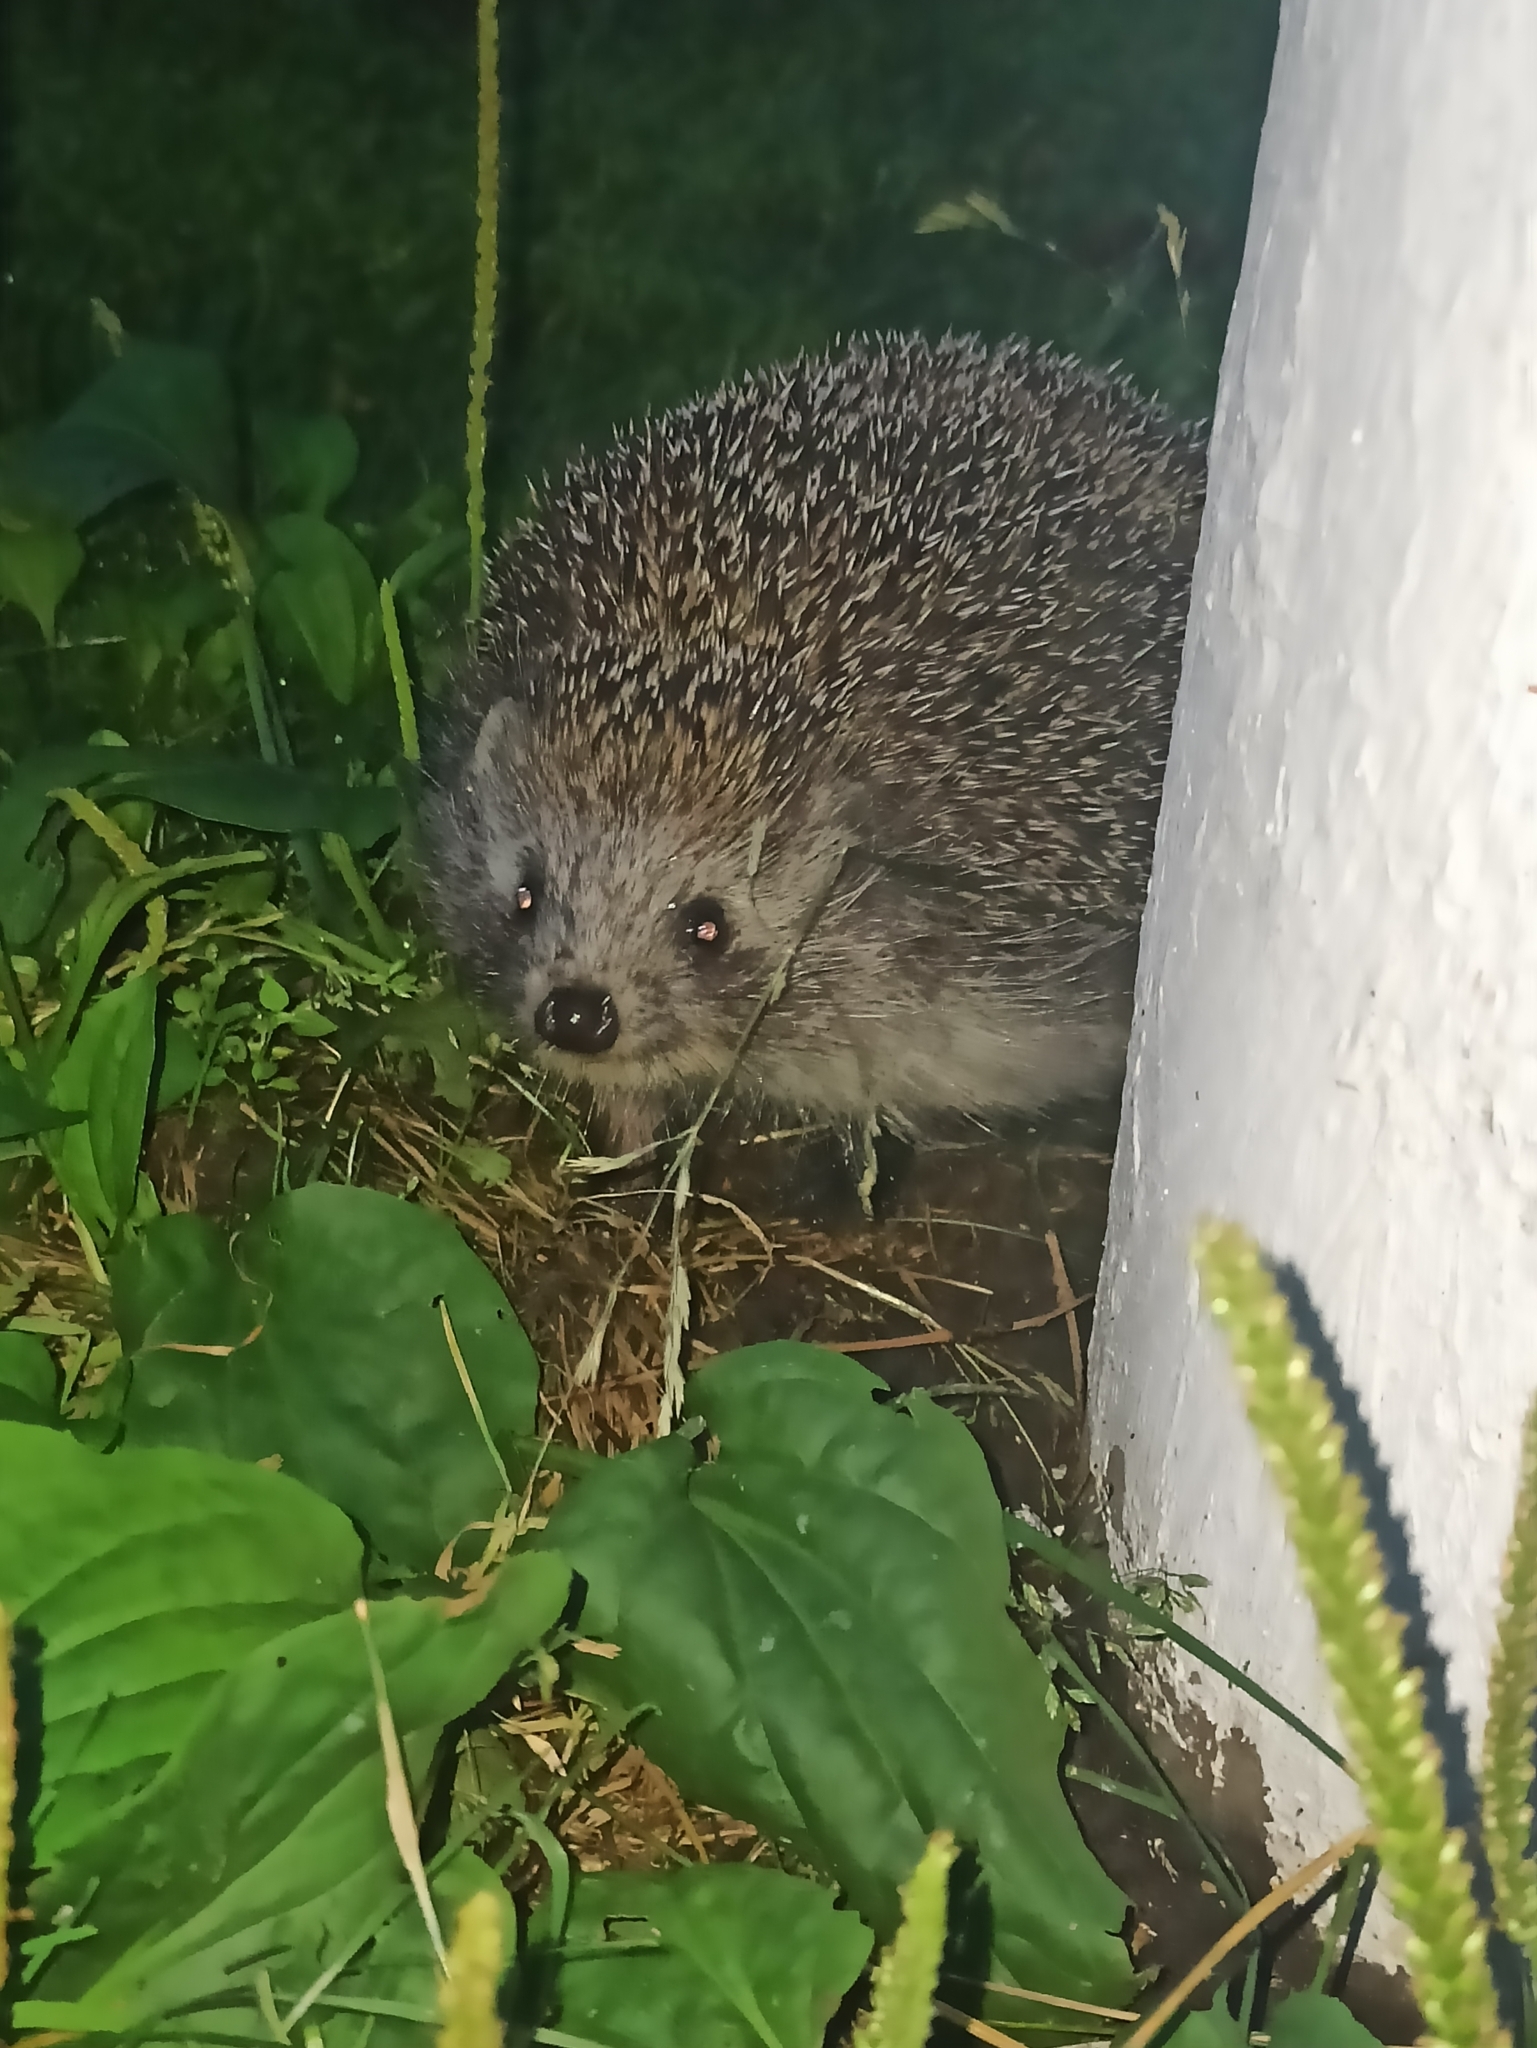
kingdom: Animalia
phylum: Chordata
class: Mammalia
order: Erinaceomorpha
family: Erinaceidae
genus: Erinaceus
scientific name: Erinaceus roumanicus
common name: Northern white-breasted hedgehog
